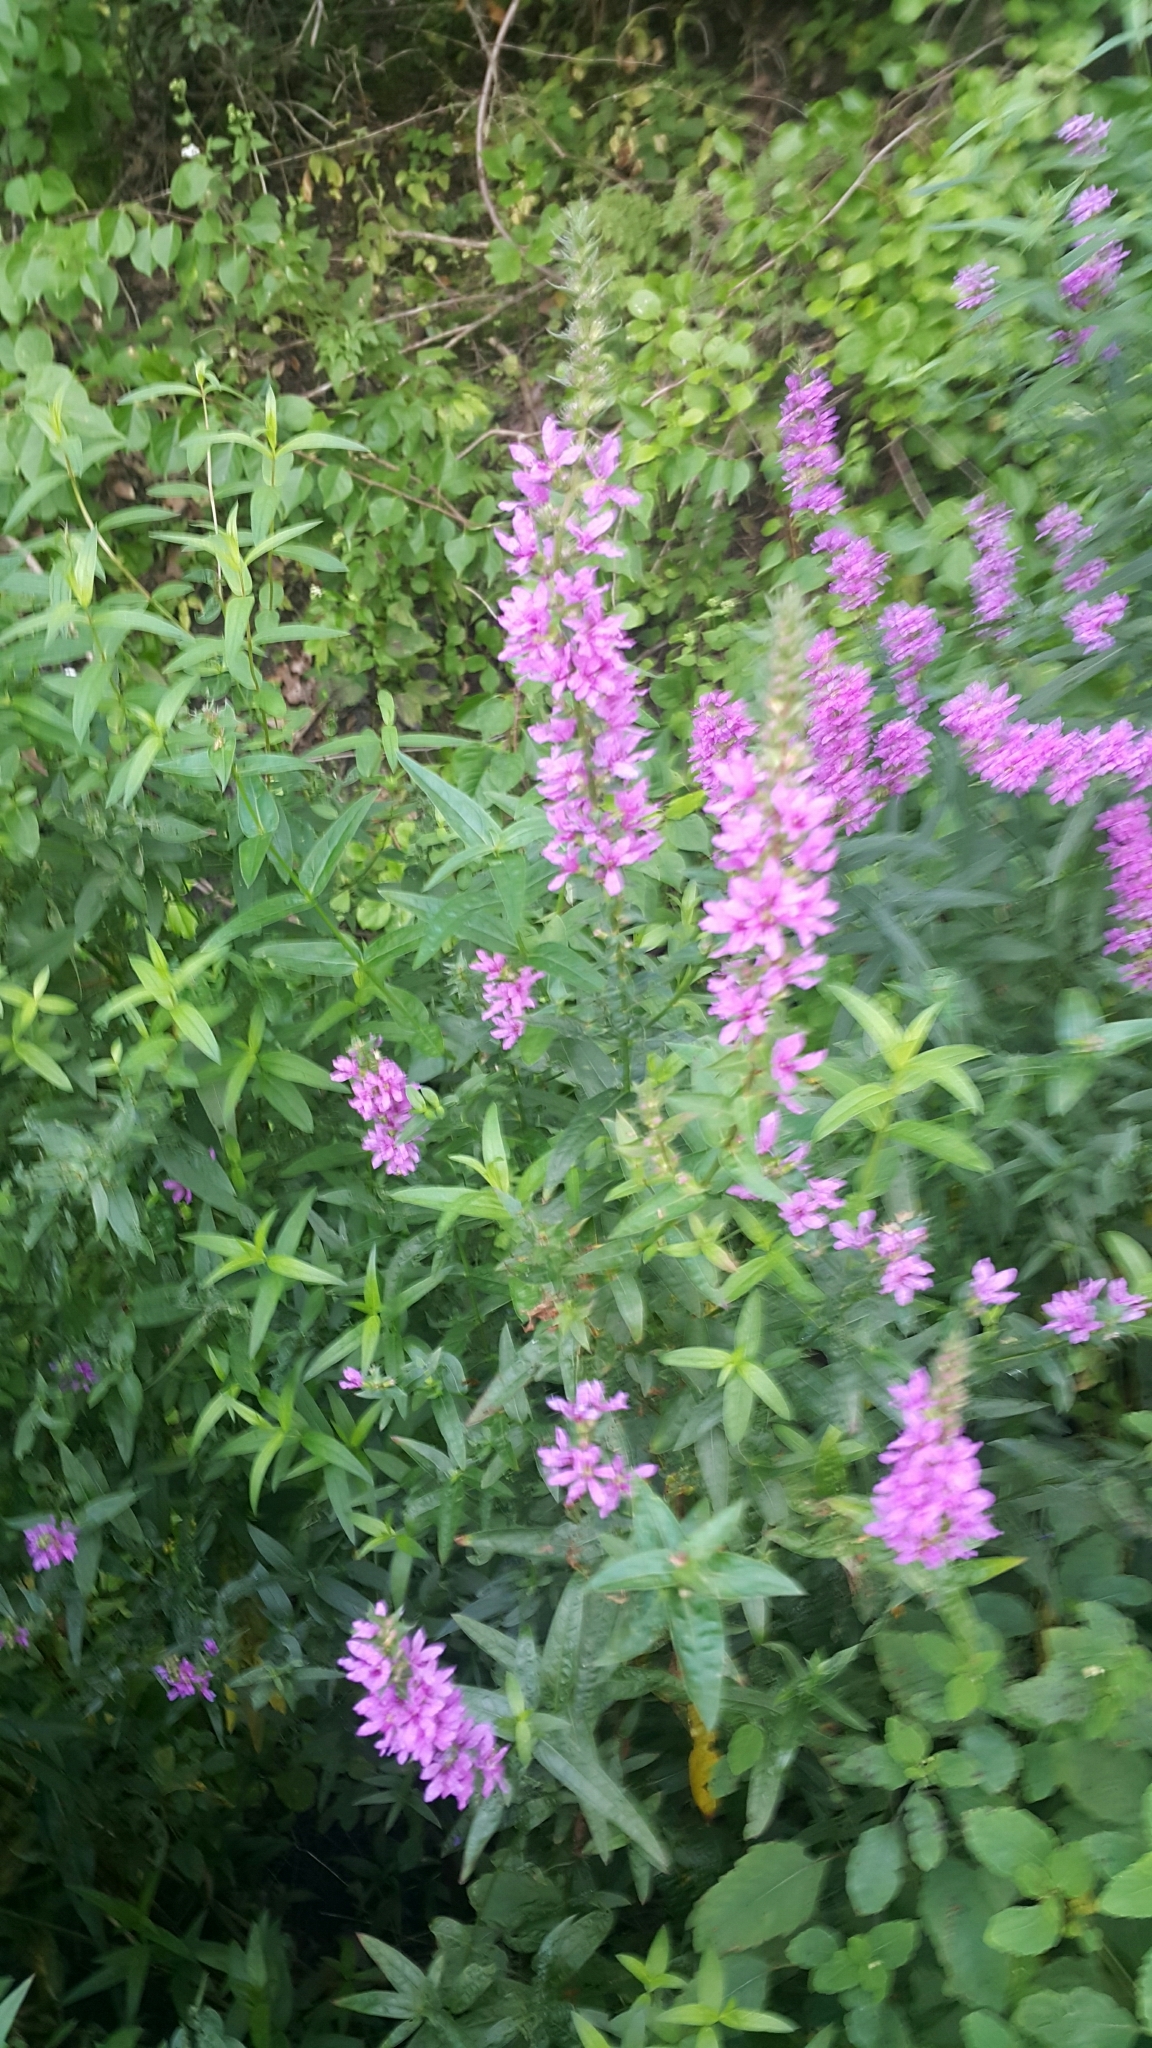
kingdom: Plantae
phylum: Tracheophyta
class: Magnoliopsida
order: Myrtales
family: Lythraceae
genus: Lythrum
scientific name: Lythrum salicaria
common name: Purple loosestrife
